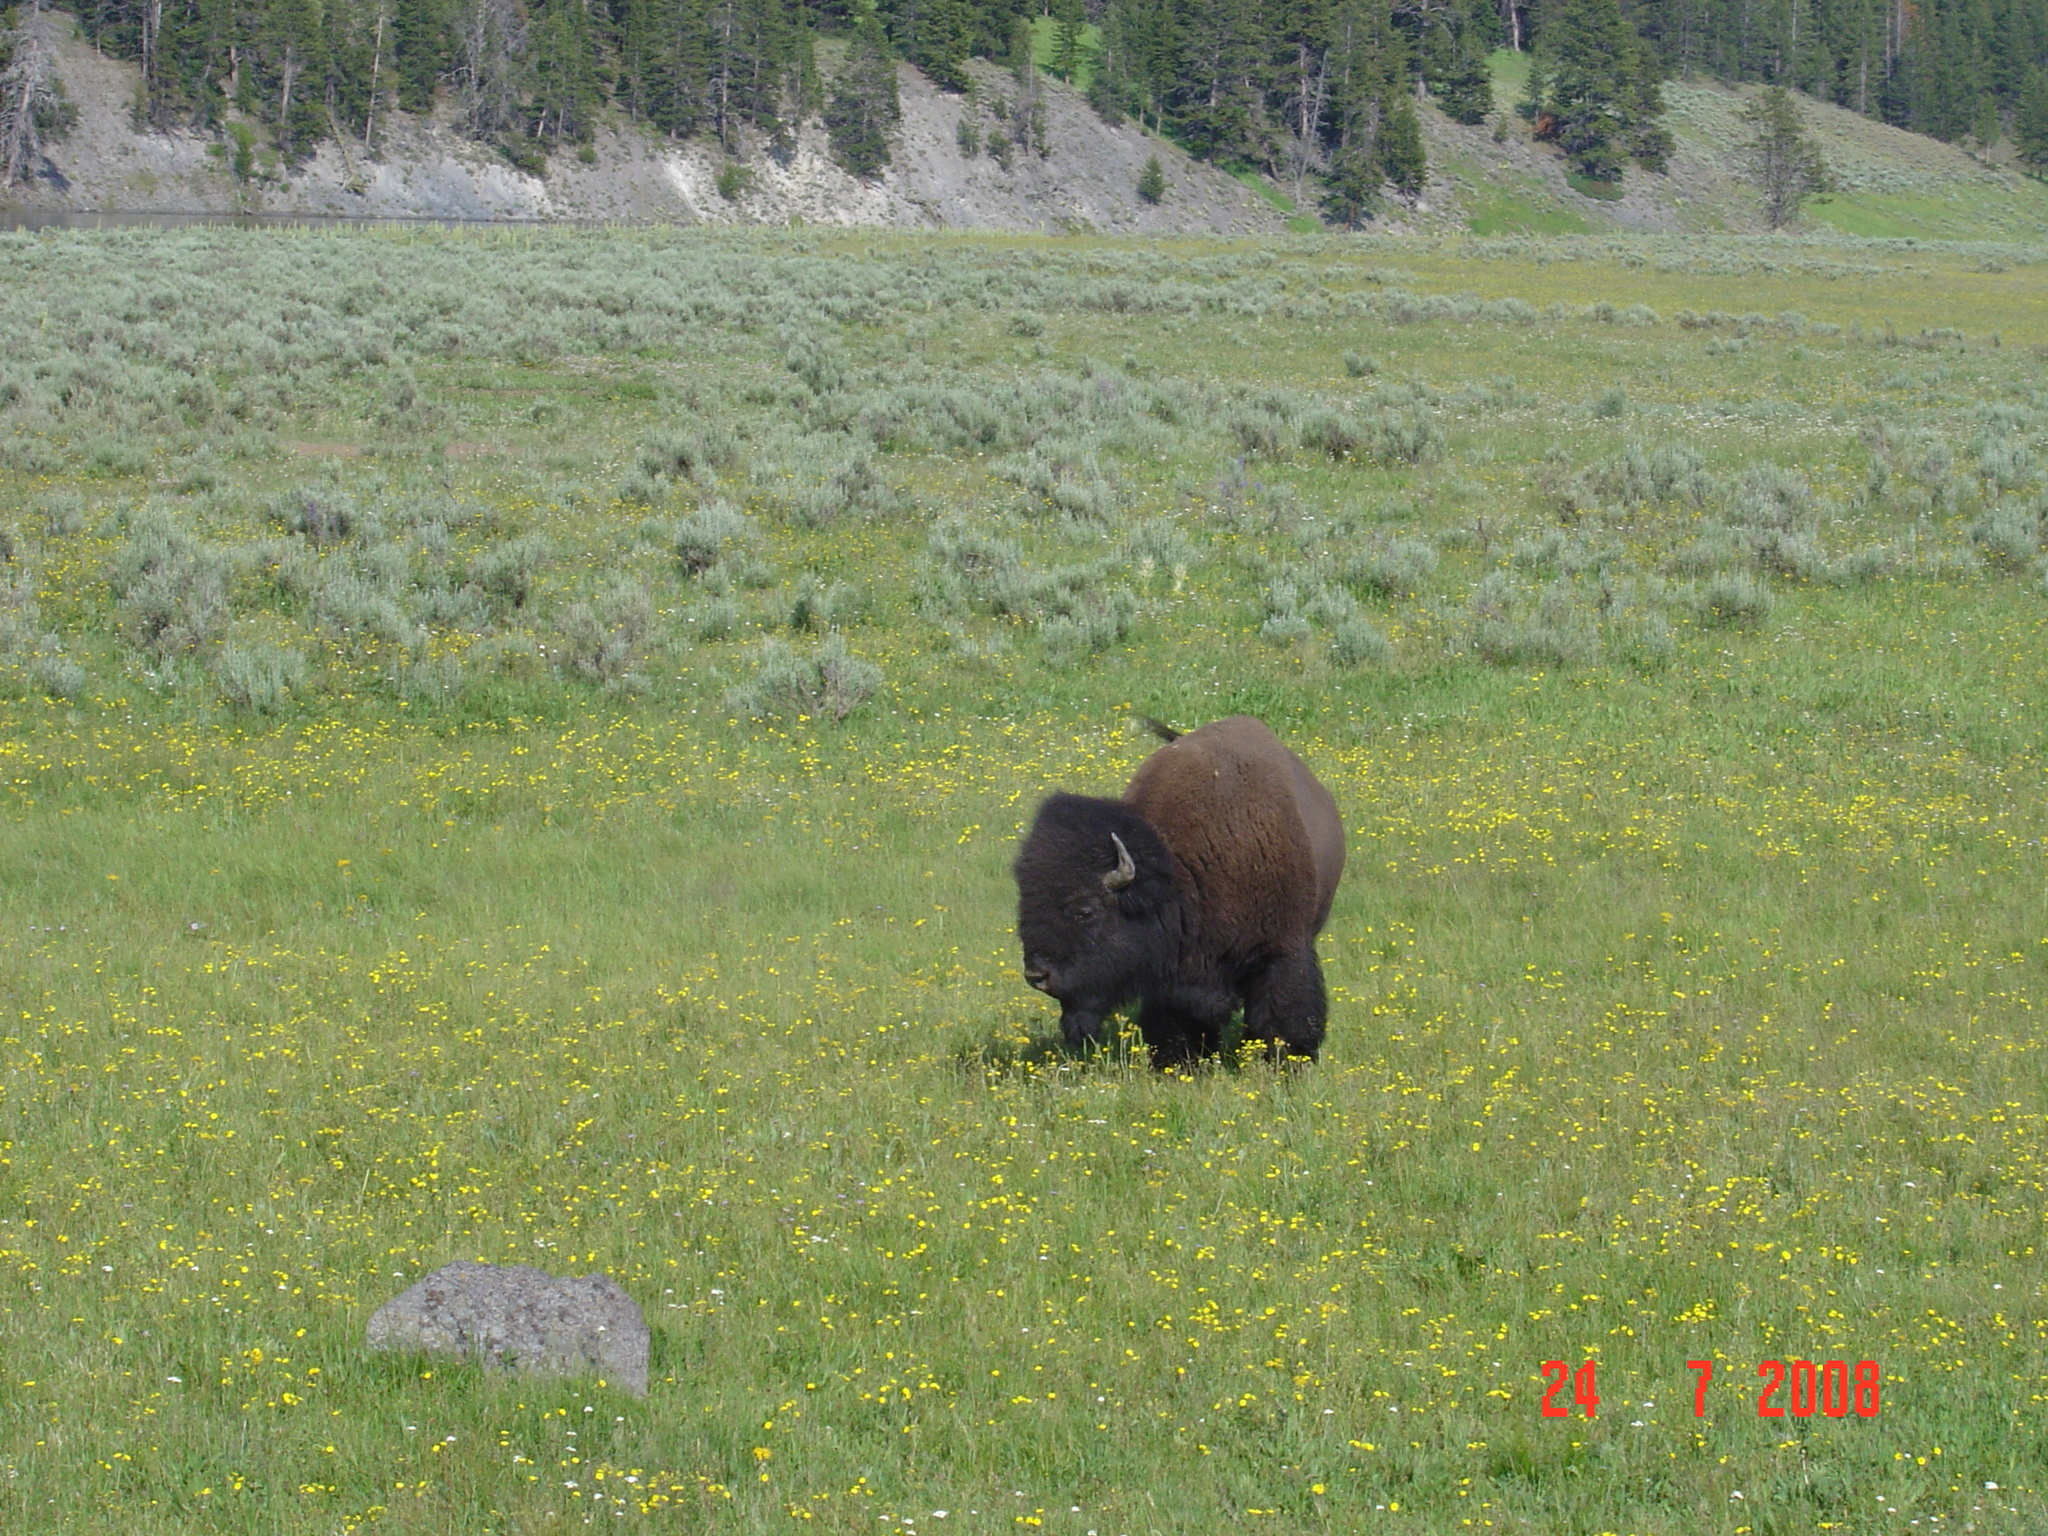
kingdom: Animalia
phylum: Chordata
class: Mammalia
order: Artiodactyla
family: Bovidae
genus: Bison
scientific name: Bison bison
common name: American bison
